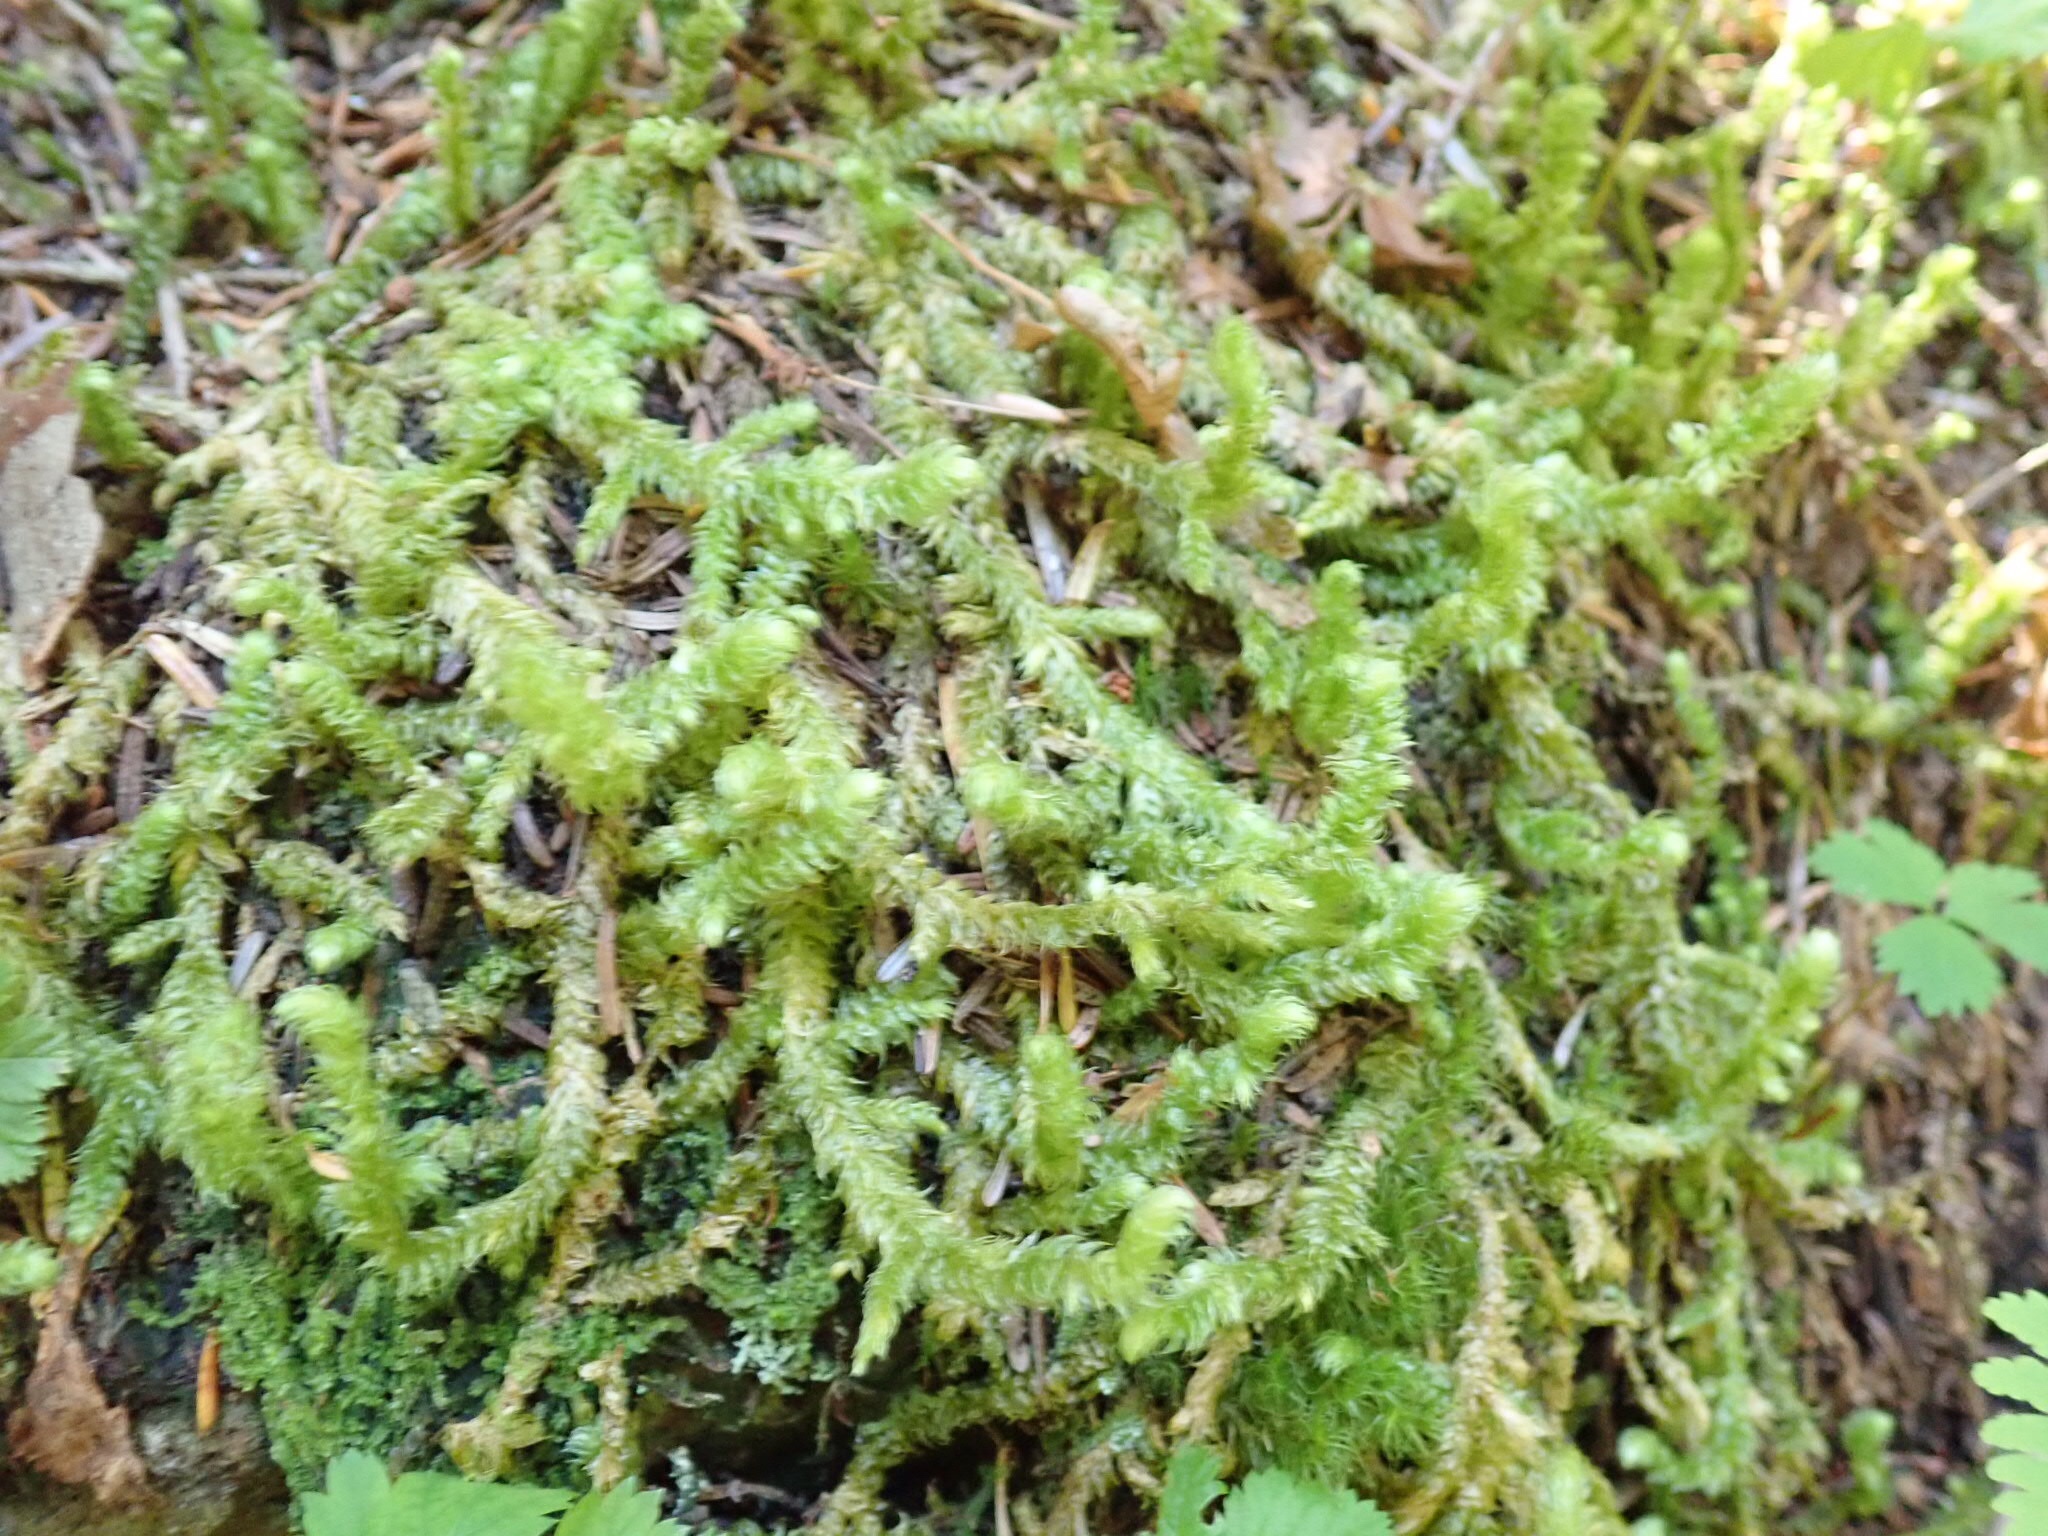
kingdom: Plantae
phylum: Bryophyta
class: Bryopsida
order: Hypnales
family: Hylocomiaceae
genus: Hylocomiadelphus
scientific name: Hylocomiadelphus triquetrus
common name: Rough goose neck moss
